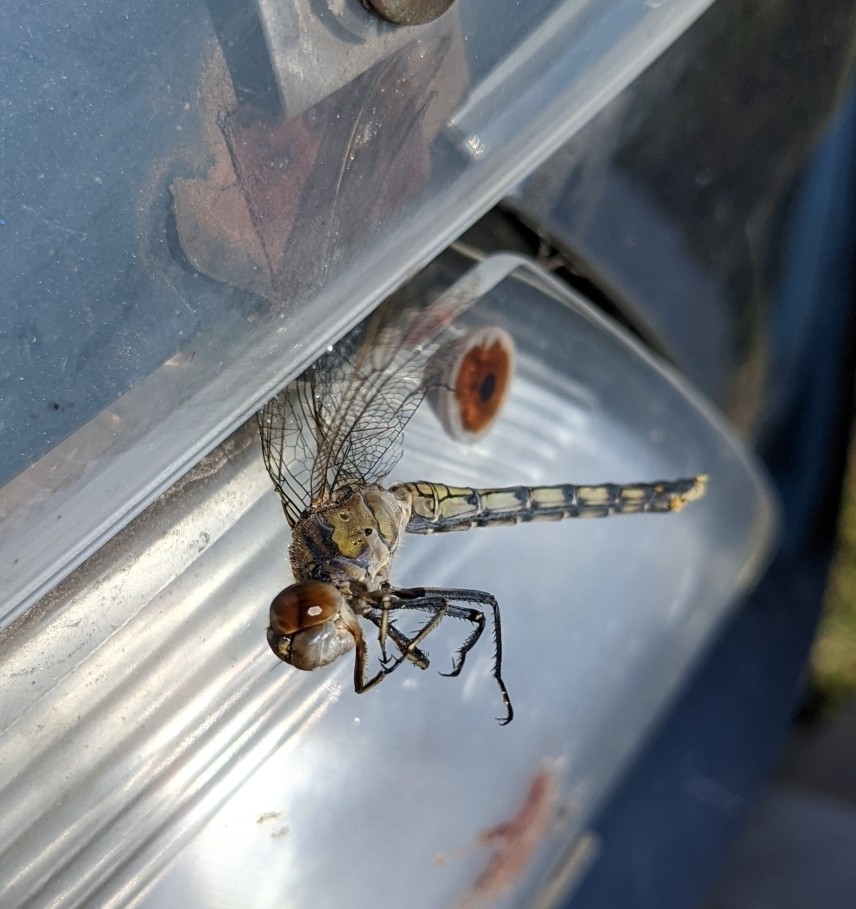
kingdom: Animalia
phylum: Arthropoda
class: Insecta
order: Odonata
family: Libellulidae
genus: Orthetrum
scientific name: Orthetrum caledonicum
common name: Blue skimmer
